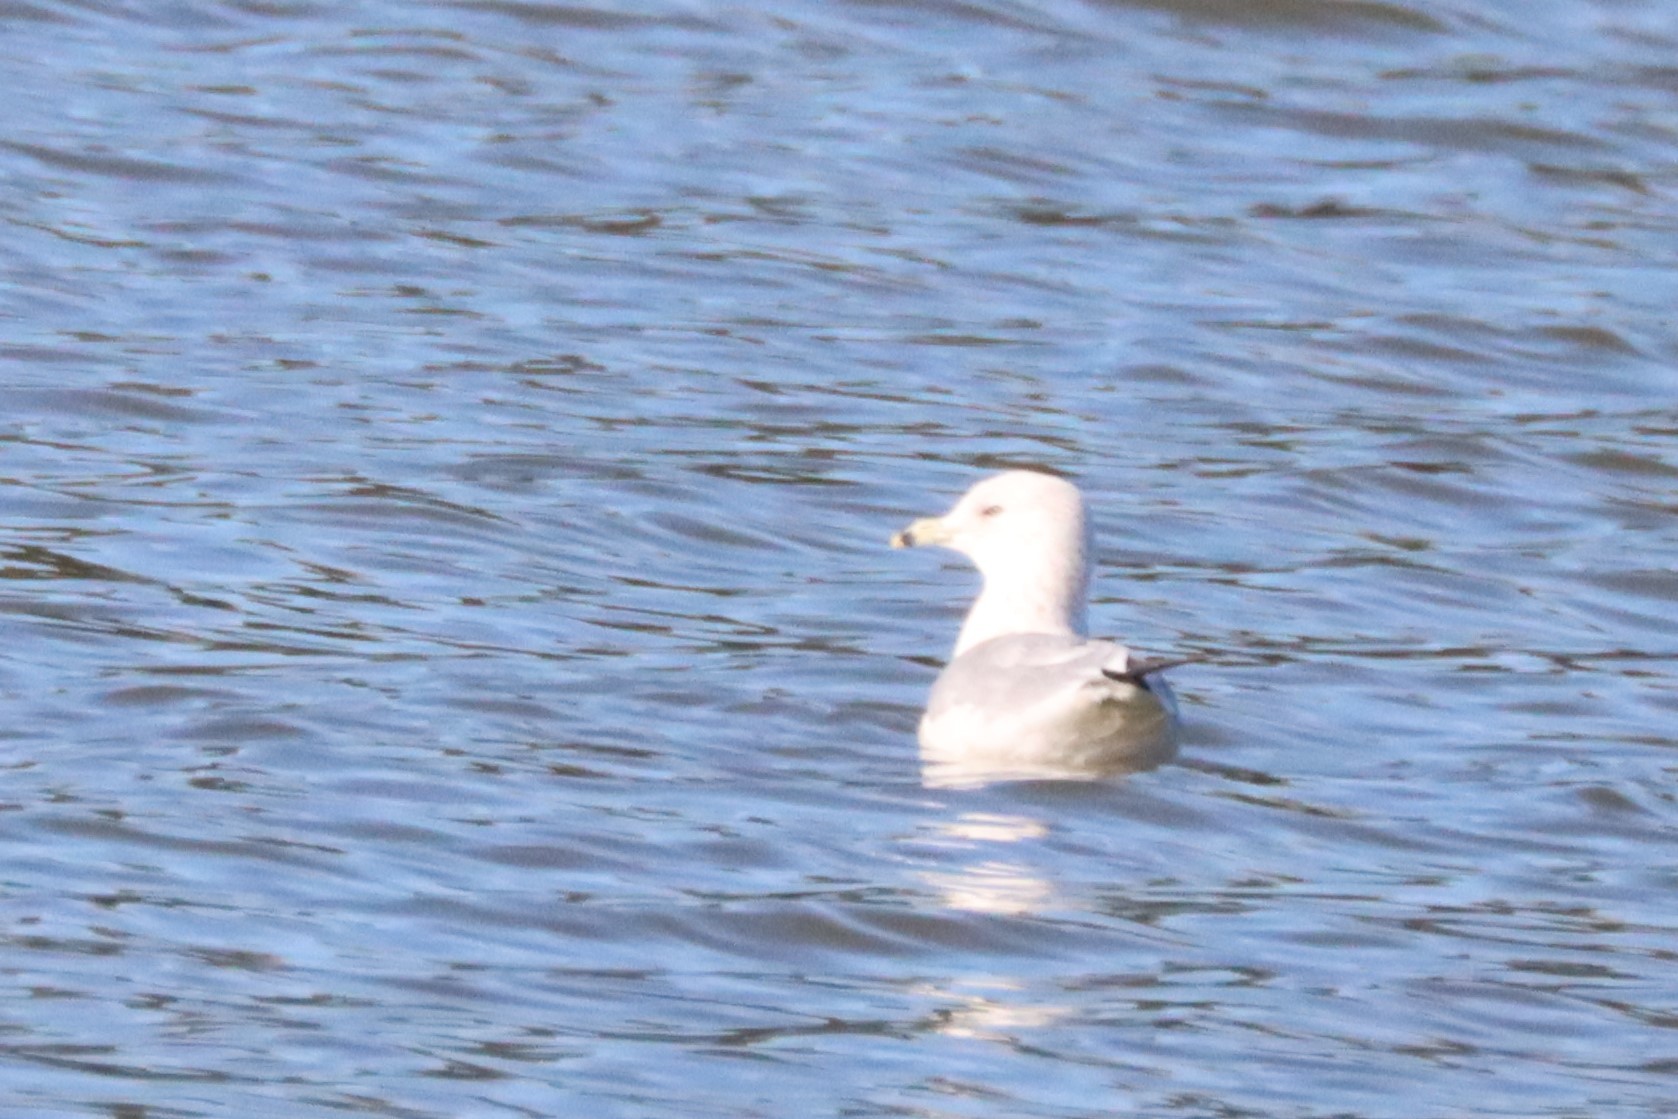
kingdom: Animalia
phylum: Chordata
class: Aves
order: Charadriiformes
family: Laridae
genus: Larus
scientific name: Larus delawarensis
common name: Ring-billed gull
